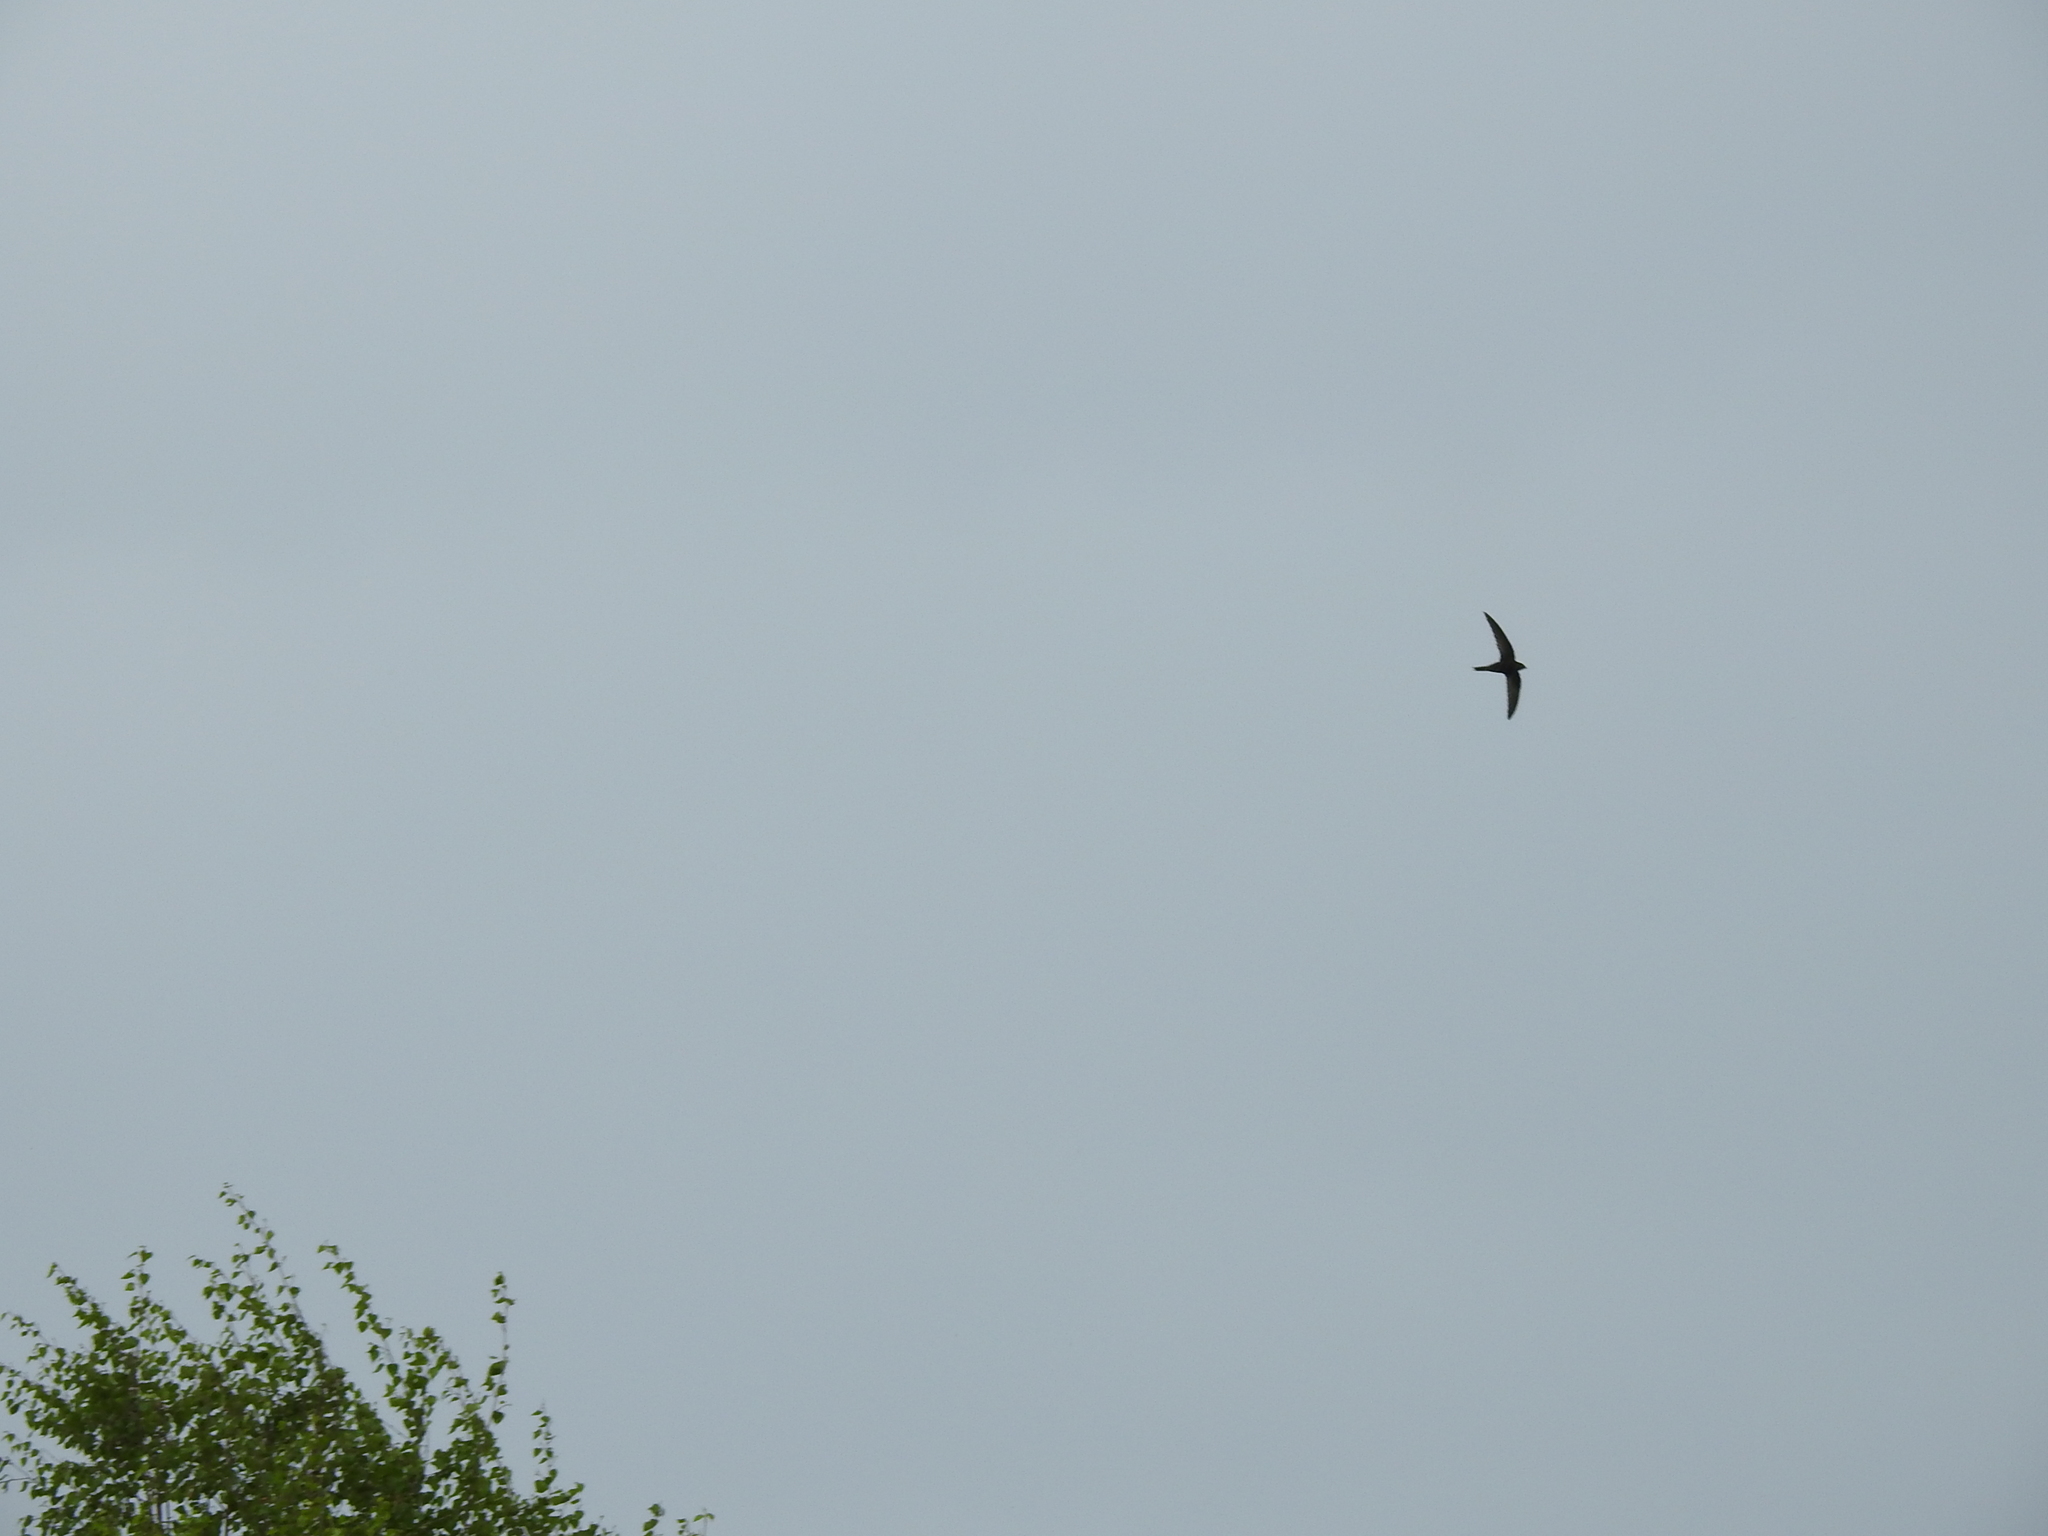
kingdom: Animalia
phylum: Chordata
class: Aves
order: Apodiformes
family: Apodidae
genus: Apus
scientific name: Apus apus
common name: Common swift
